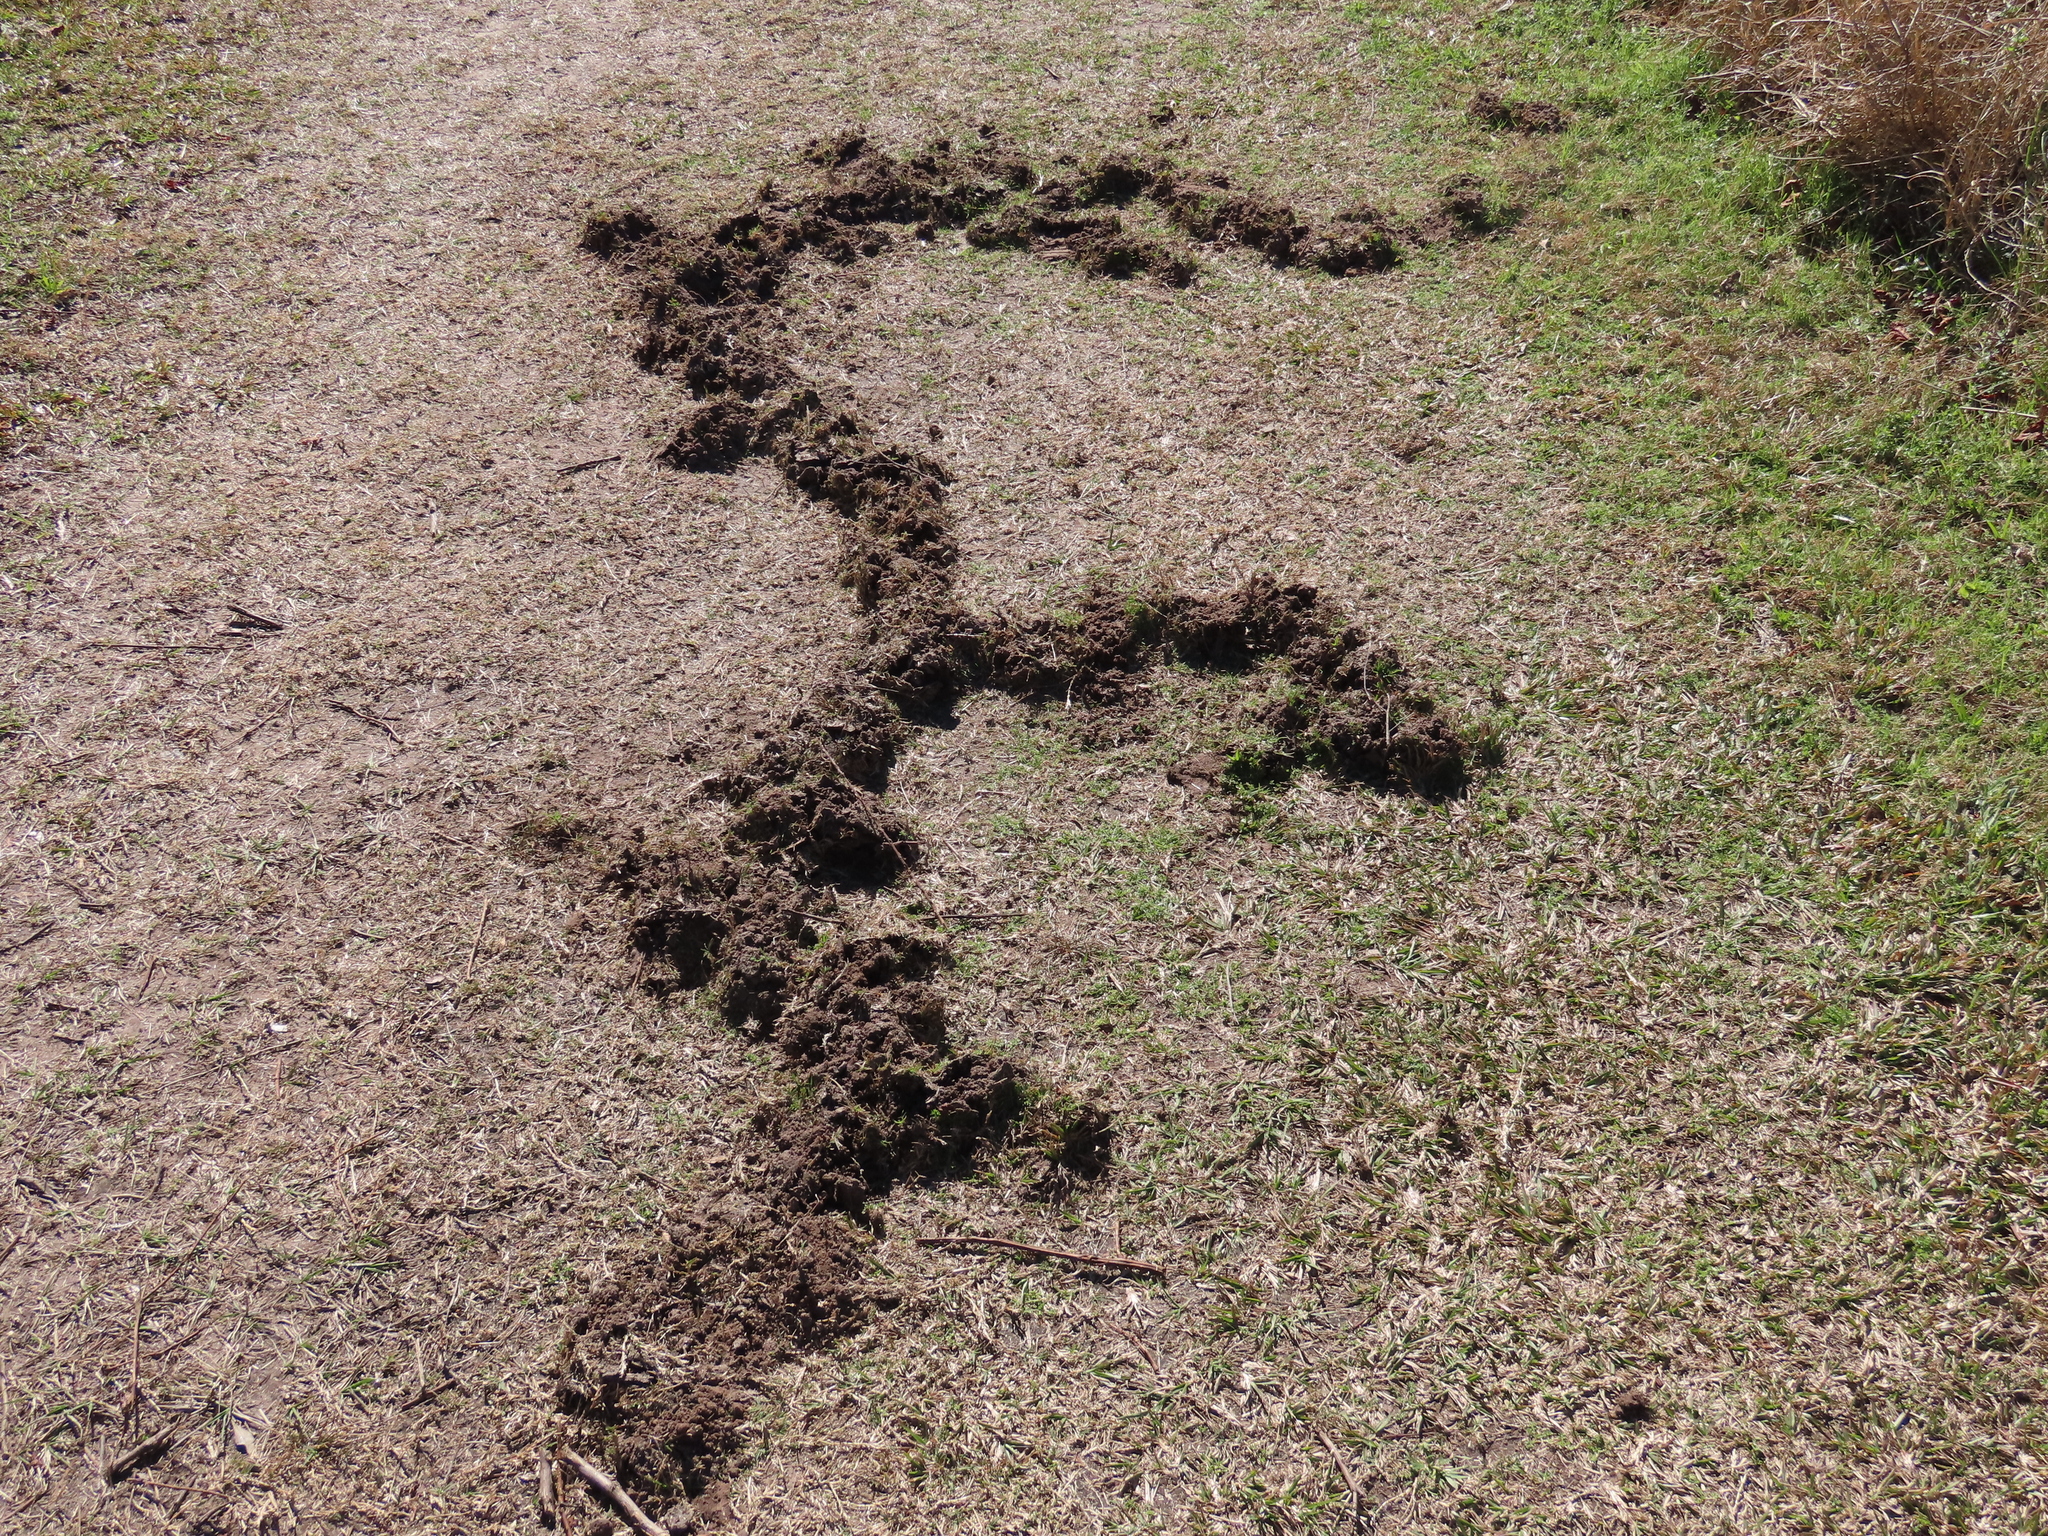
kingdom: Animalia
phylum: Chordata
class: Mammalia
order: Soricomorpha
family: Talpidae
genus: Scalopus
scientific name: Scalopus aquaticus
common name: Eastern mole
